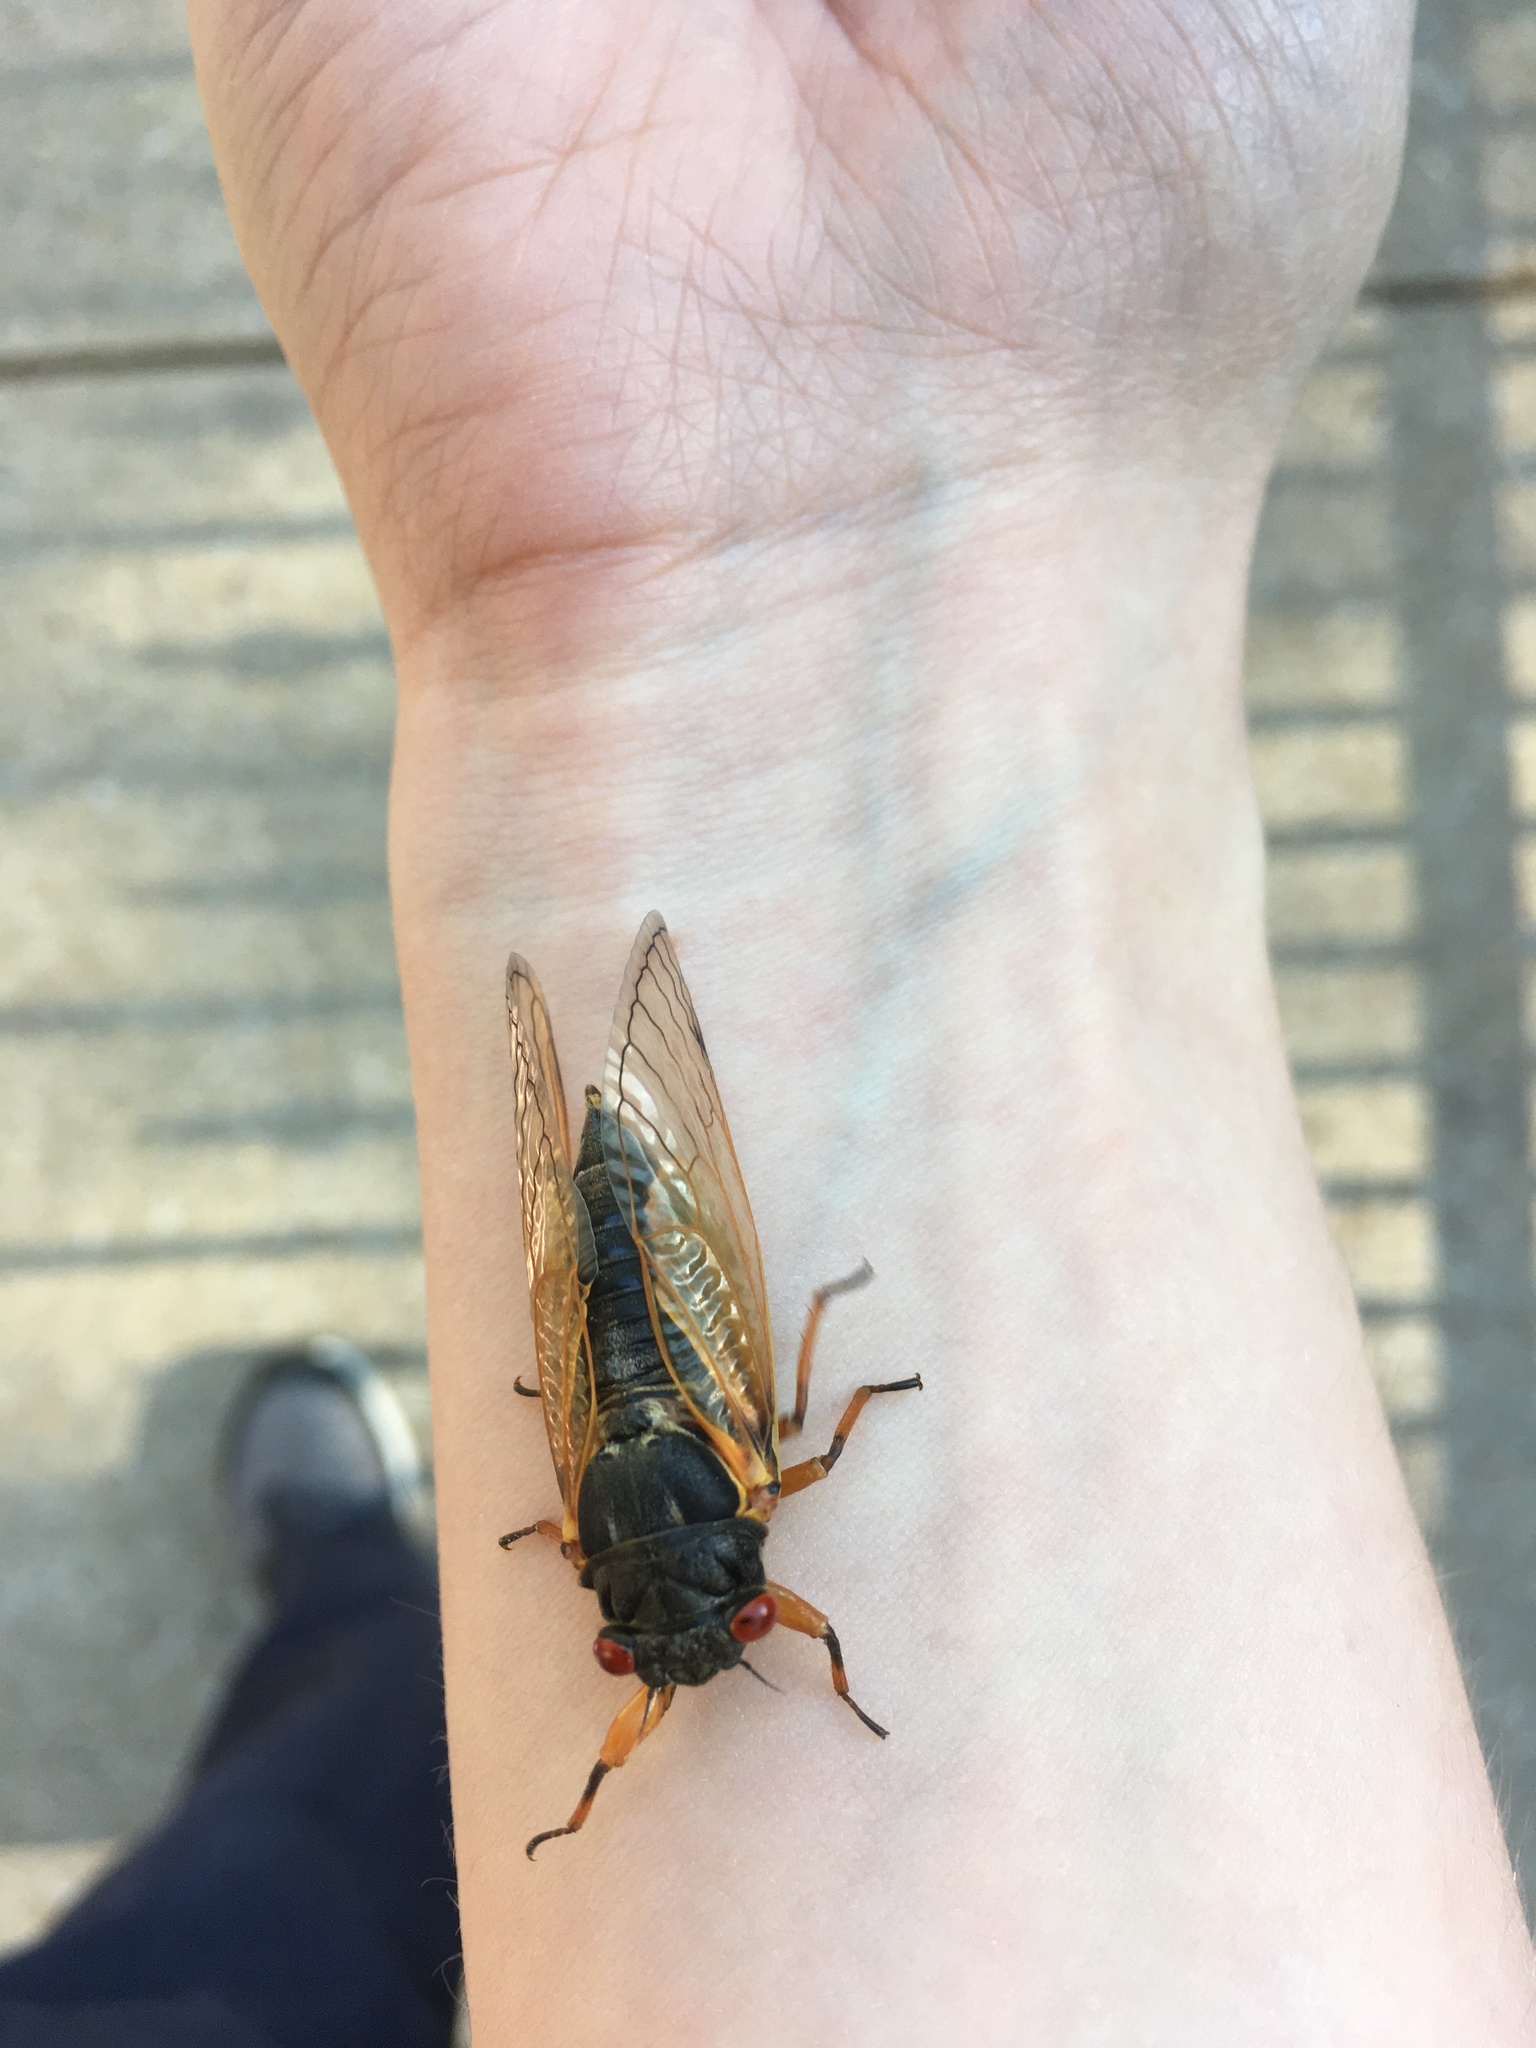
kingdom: Animalia
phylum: Arthropoda
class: Insecta
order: Hemiptera
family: Cicadidae
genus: Magicicada
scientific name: Magicicada
